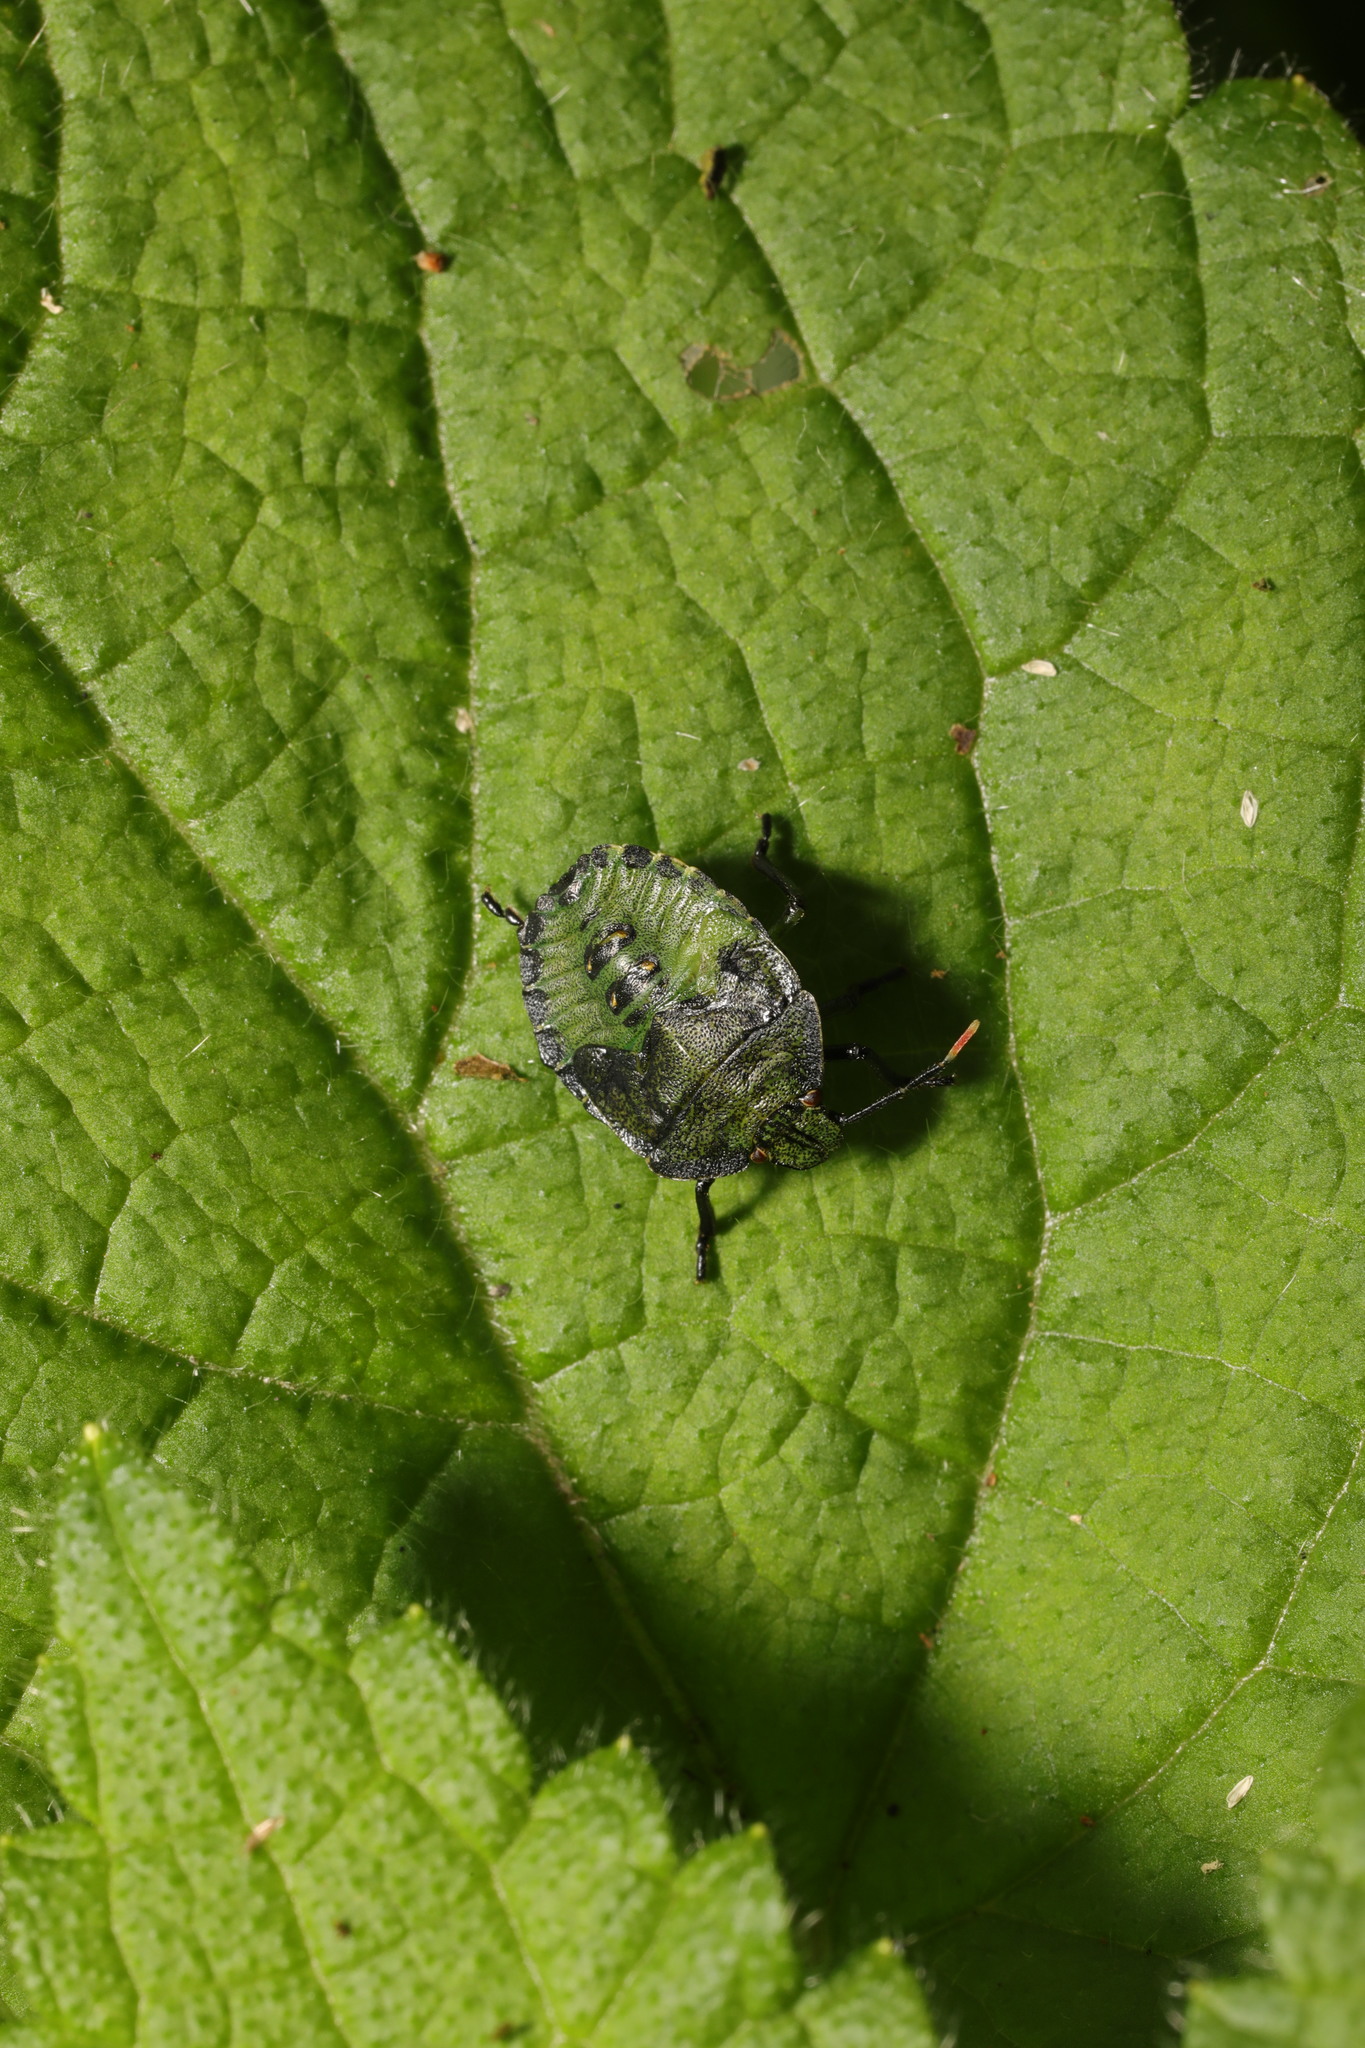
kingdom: Animalia
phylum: Arthropoda
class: Insecta
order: Hemiptera
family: Pentatomidae
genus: Palomena
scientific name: Palomena prasina
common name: Green shieldbug
